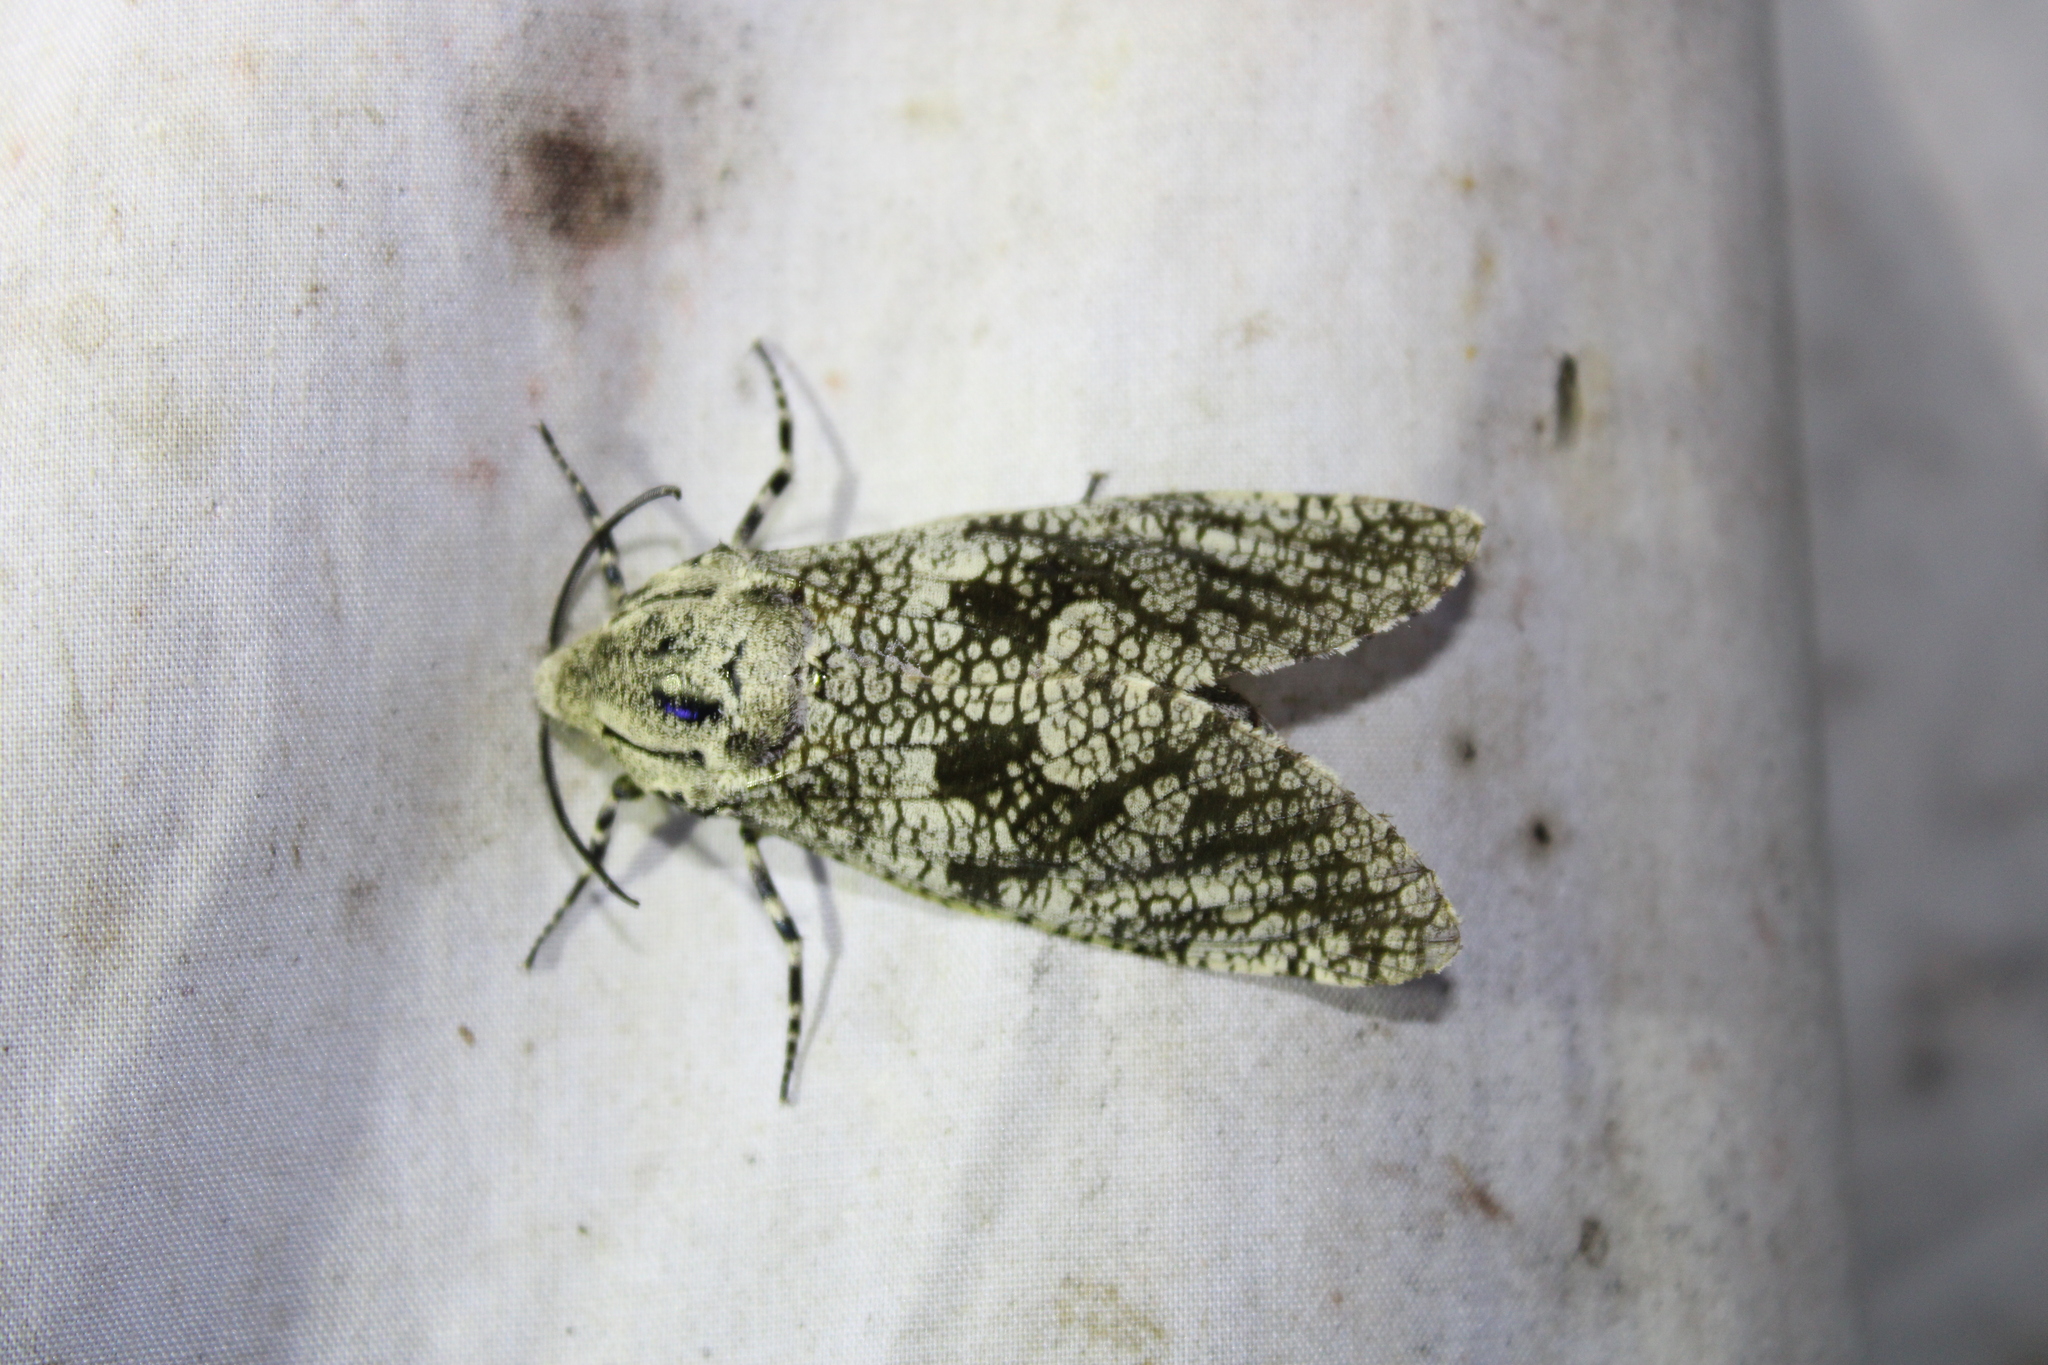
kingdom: Animalia
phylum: Arthropoda
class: Insecta
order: Lepidoptera
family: Cossidae
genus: Prionoxystus
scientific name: Prionoxystus robiniae
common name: Carpenterworm
